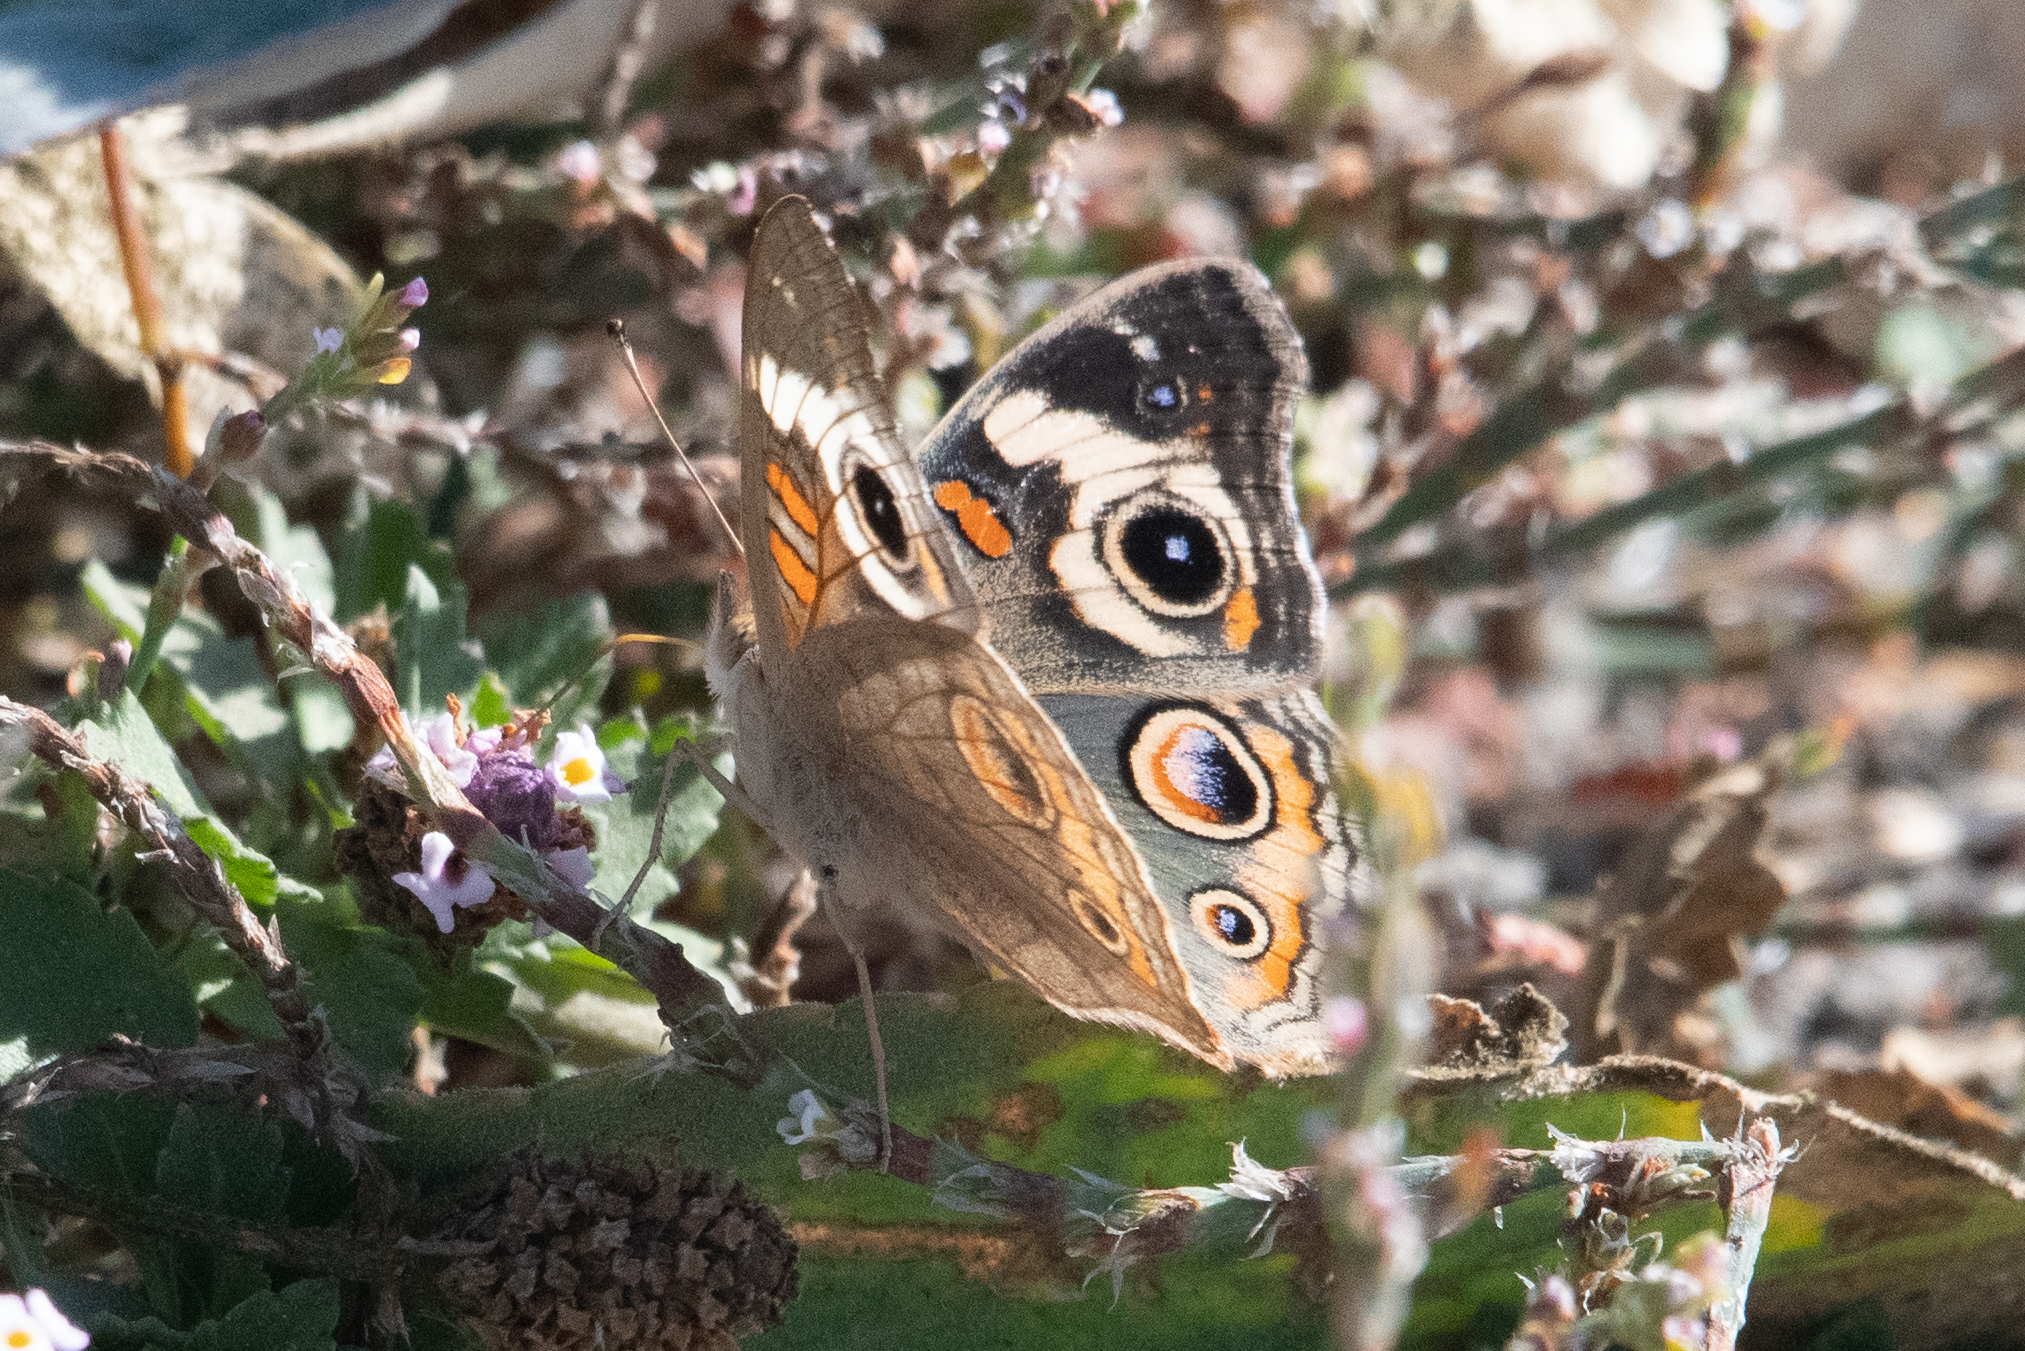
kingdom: Animalia
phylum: Arthropoda
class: Insecta
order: Lepidoptera
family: Nymphalidae
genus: Junonia
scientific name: Junonia grisea
